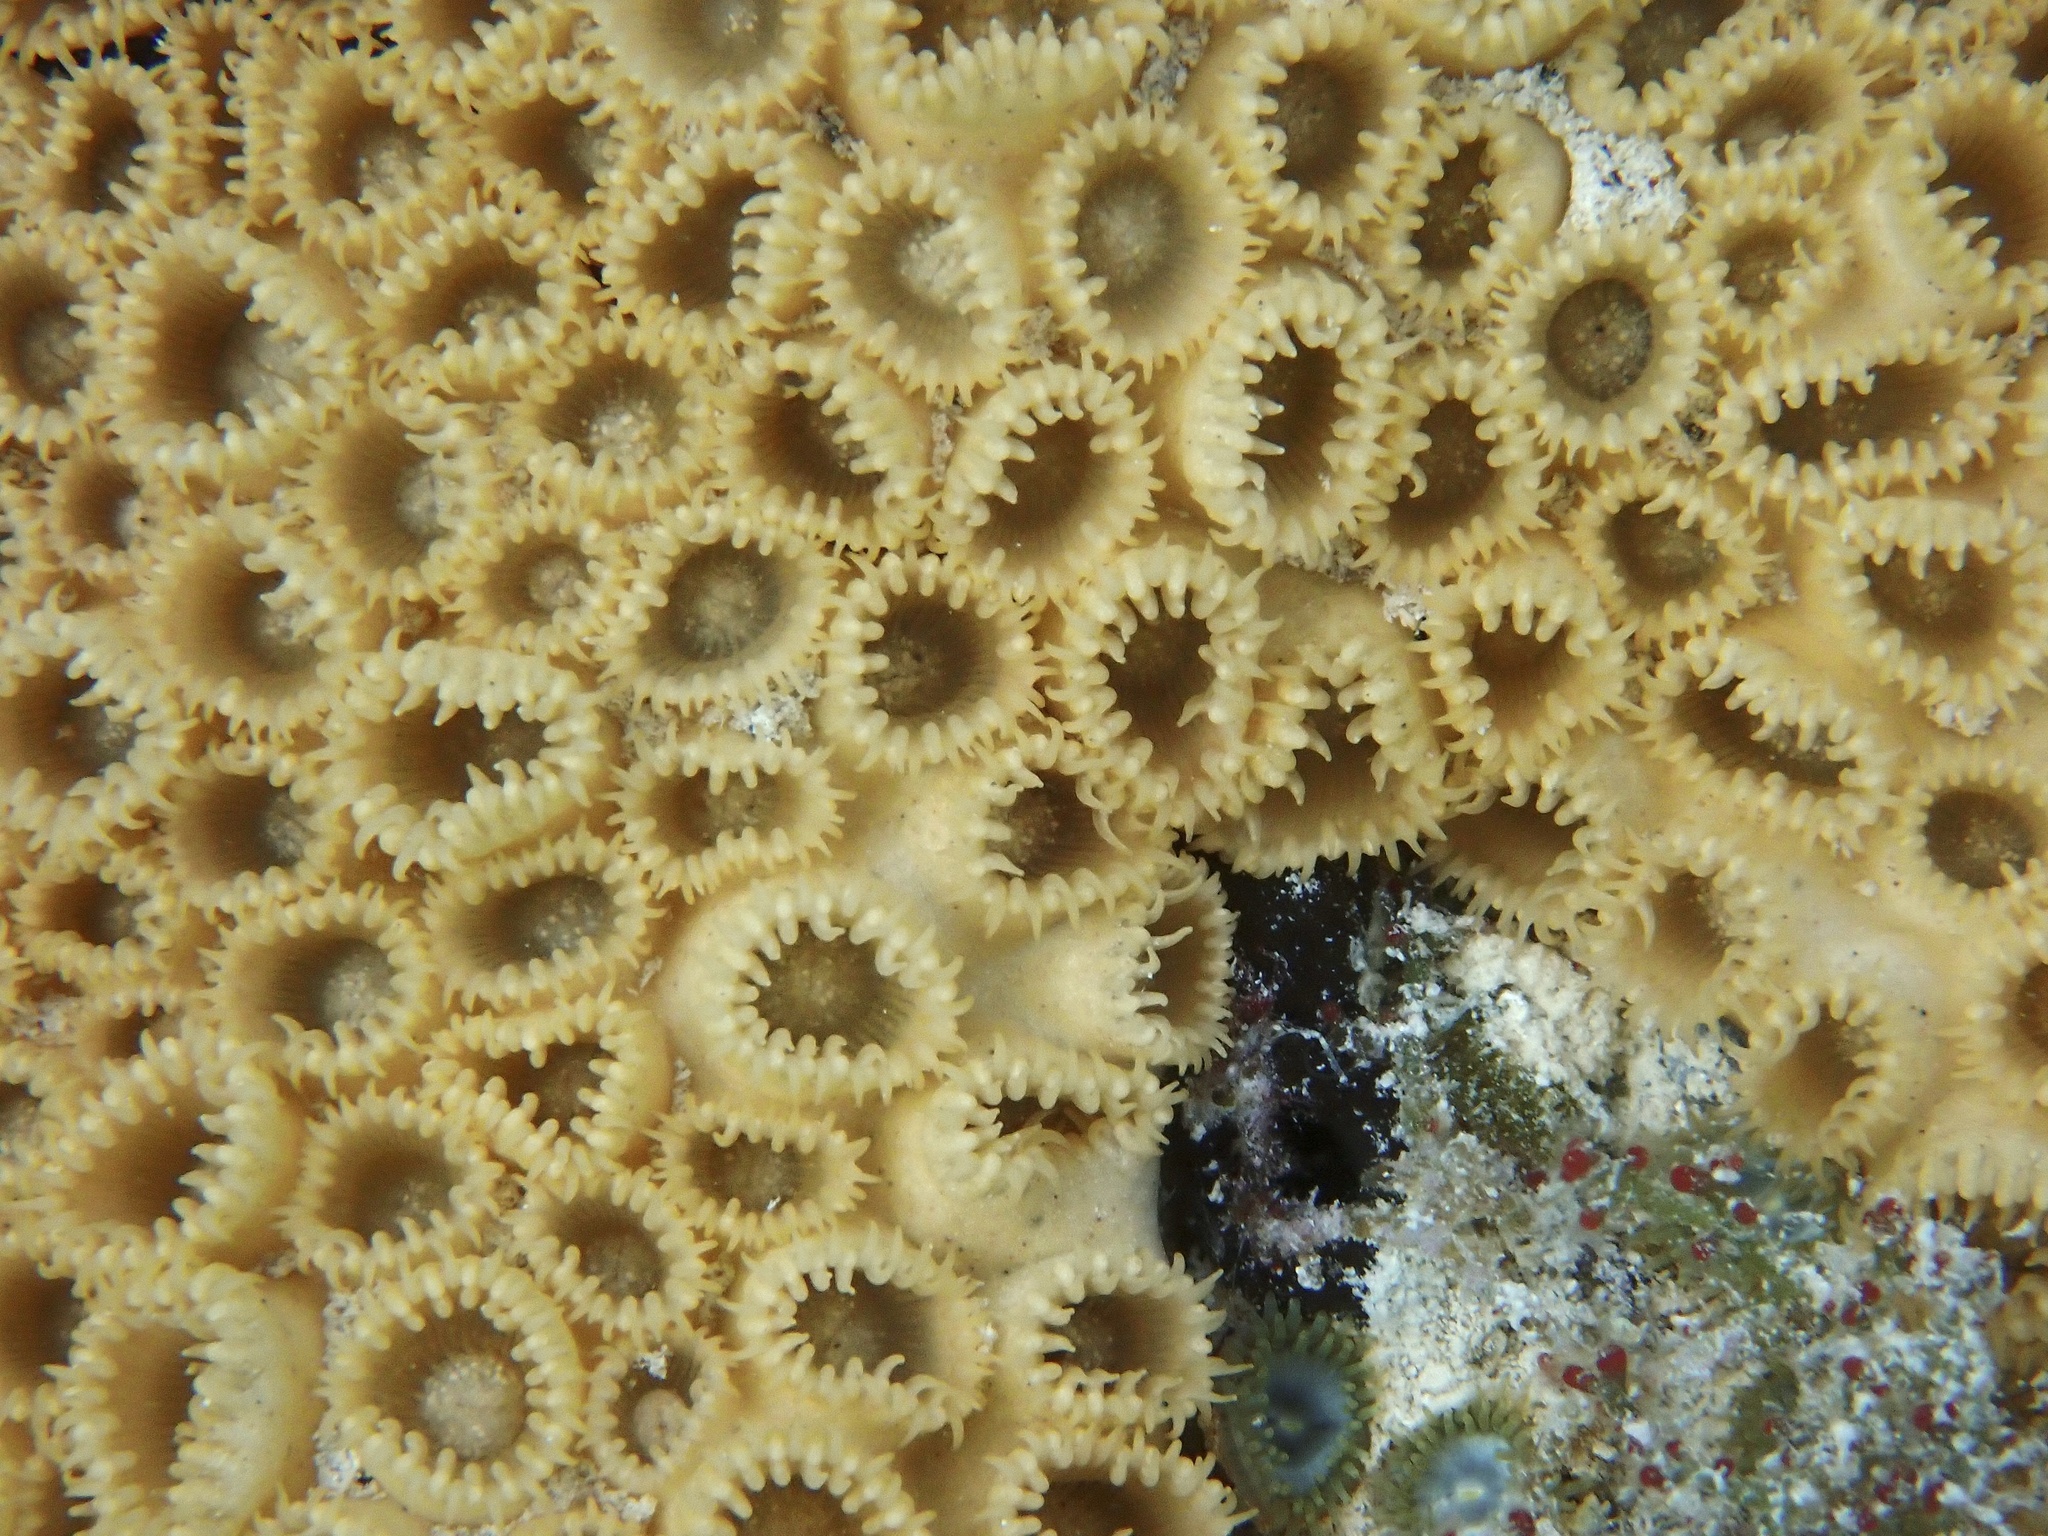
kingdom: Animalia
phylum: Cnidaria
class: Anthozoa
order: Zoantharia
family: Sphenopidae
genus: Palythoa
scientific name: Palythoa caribaeorum
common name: Encrusting colonial anemone
